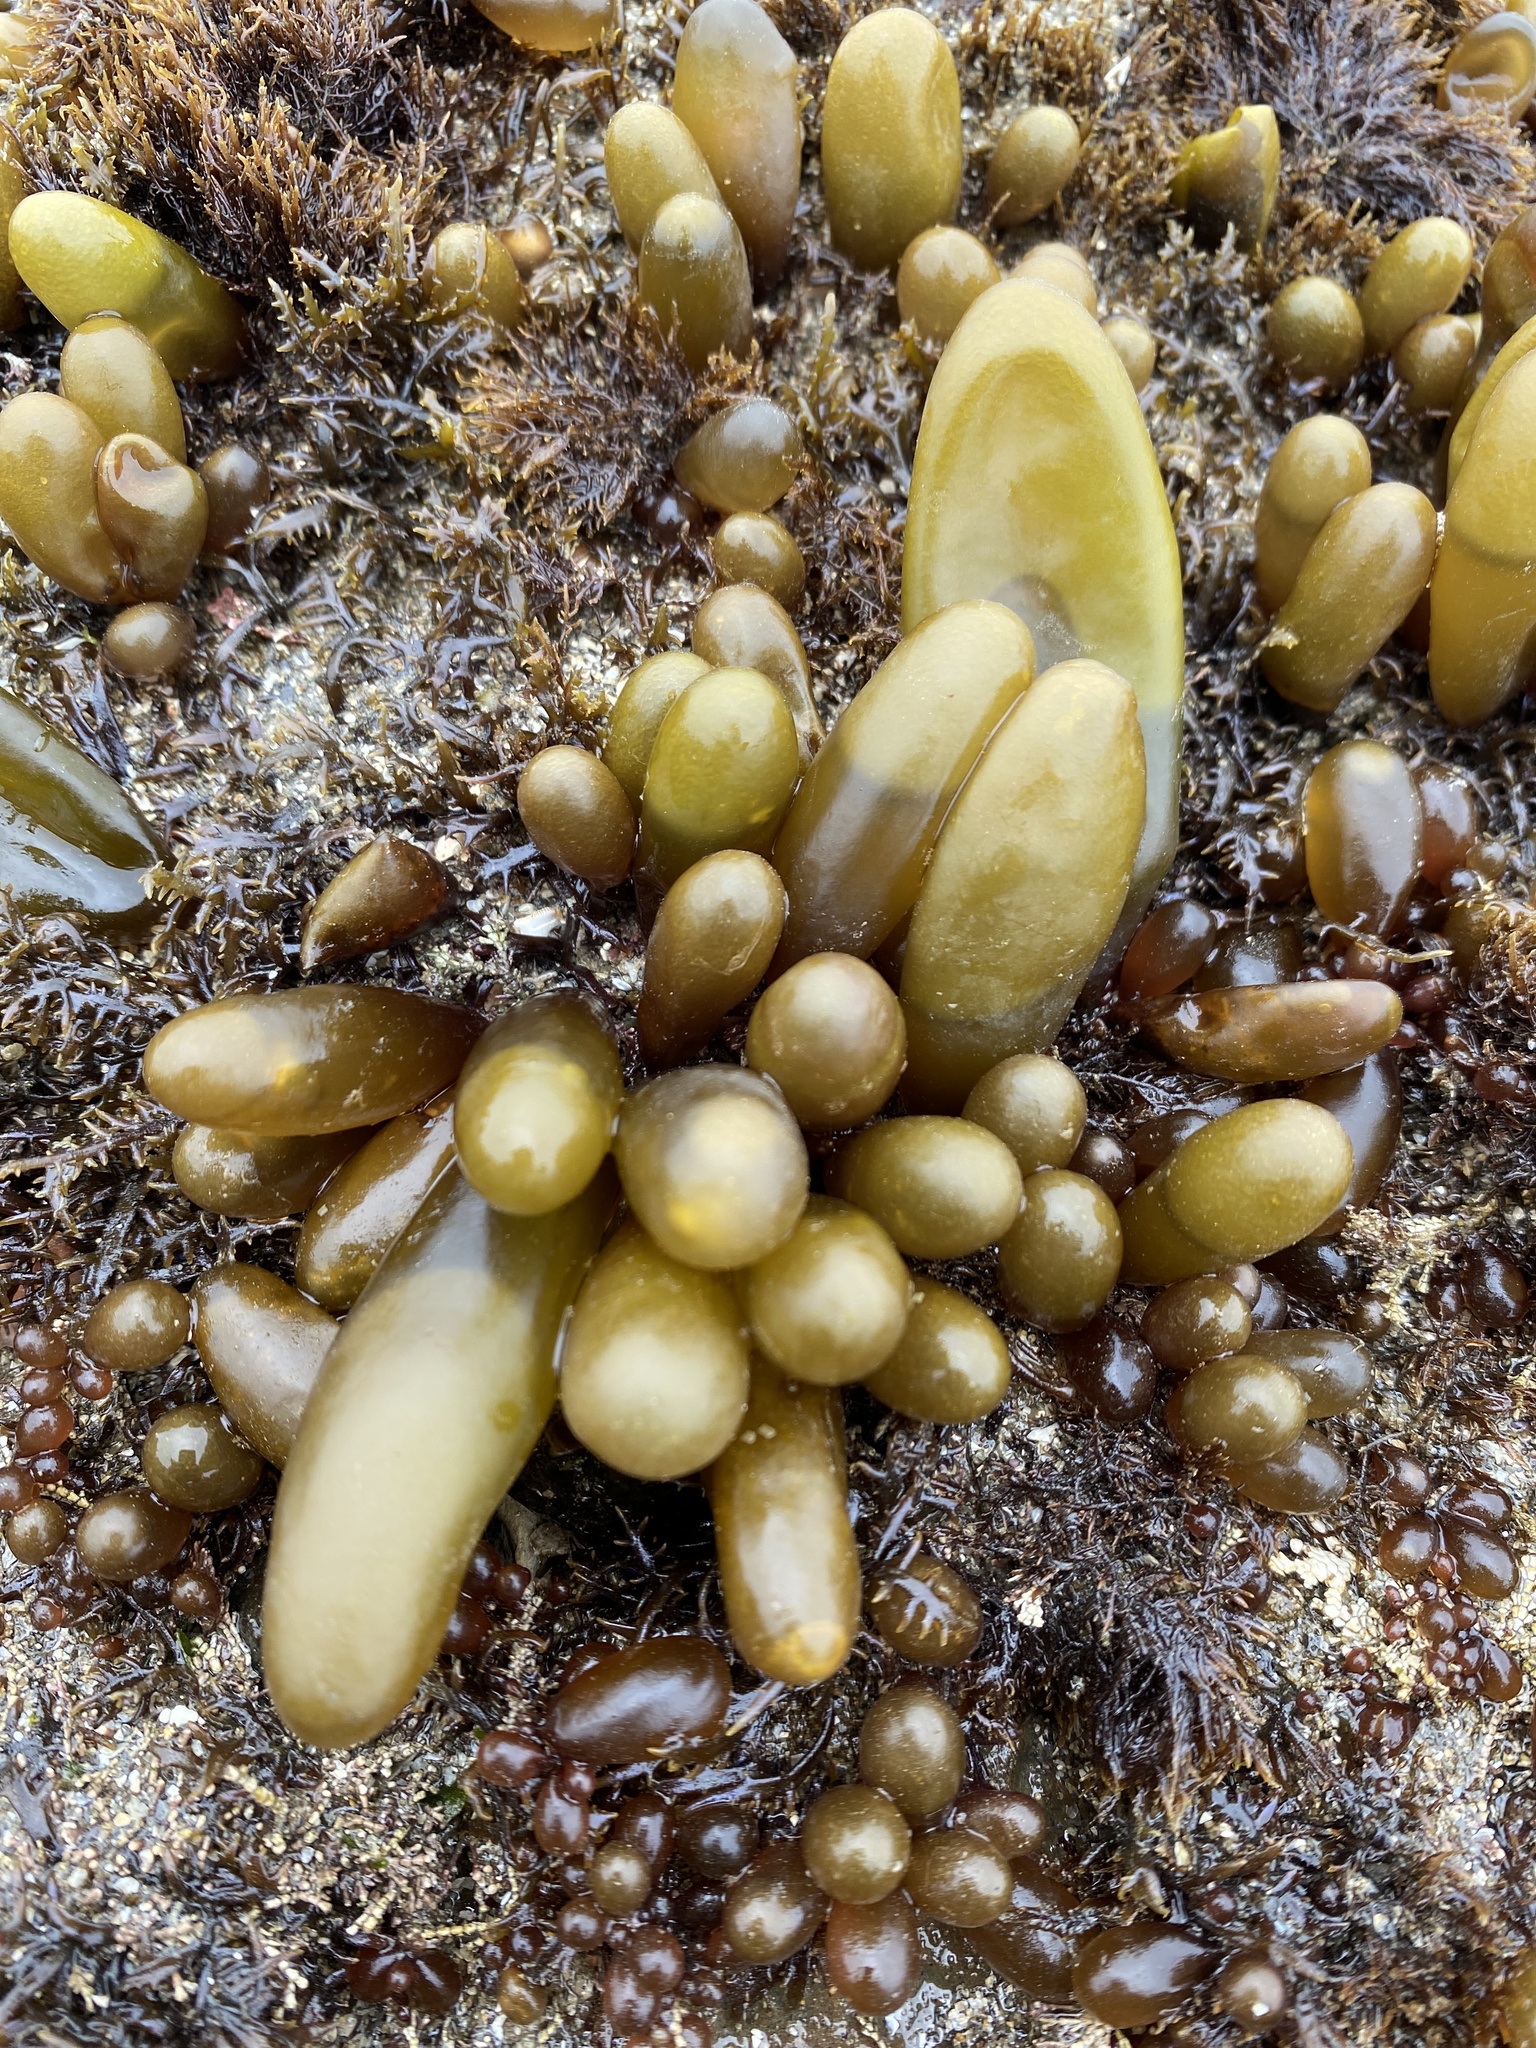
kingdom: Plantae
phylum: Rhodophyta
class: Florideophyceae
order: Palmariales
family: Palmariaceae
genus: Halosaccion
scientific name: Halosaccion glandiforme
